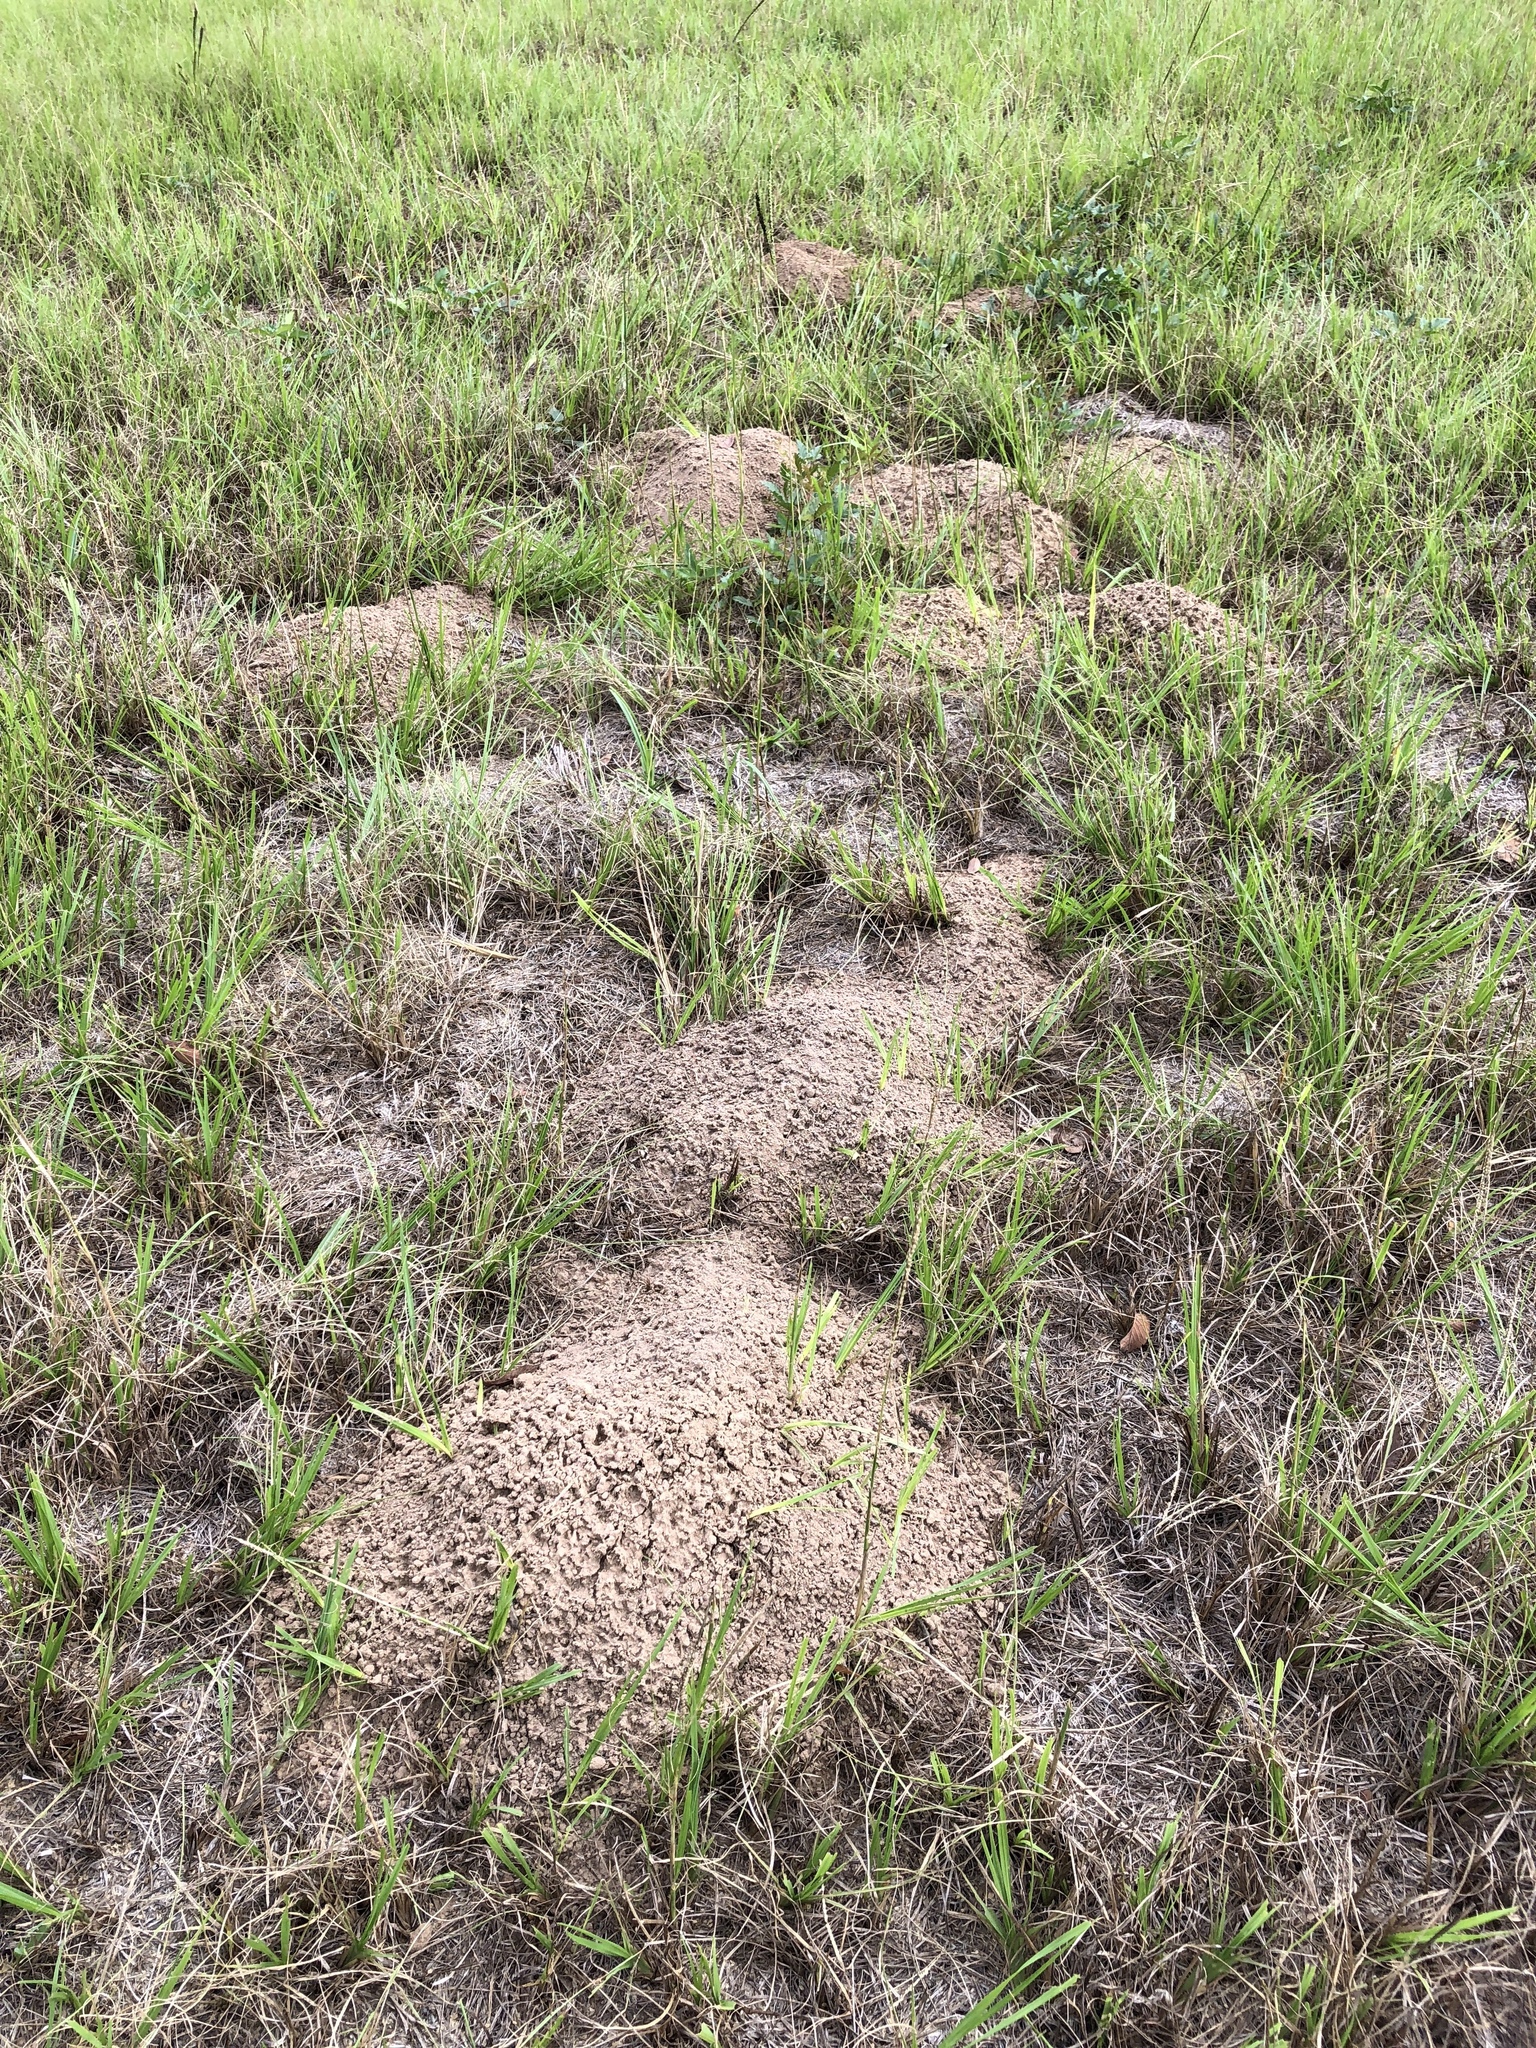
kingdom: Animalia
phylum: Chordata
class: Mammalia
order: Rodentia
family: Geomyidae
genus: Geomys
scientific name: Geomys breviceps
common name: Baird's pocket gopher
